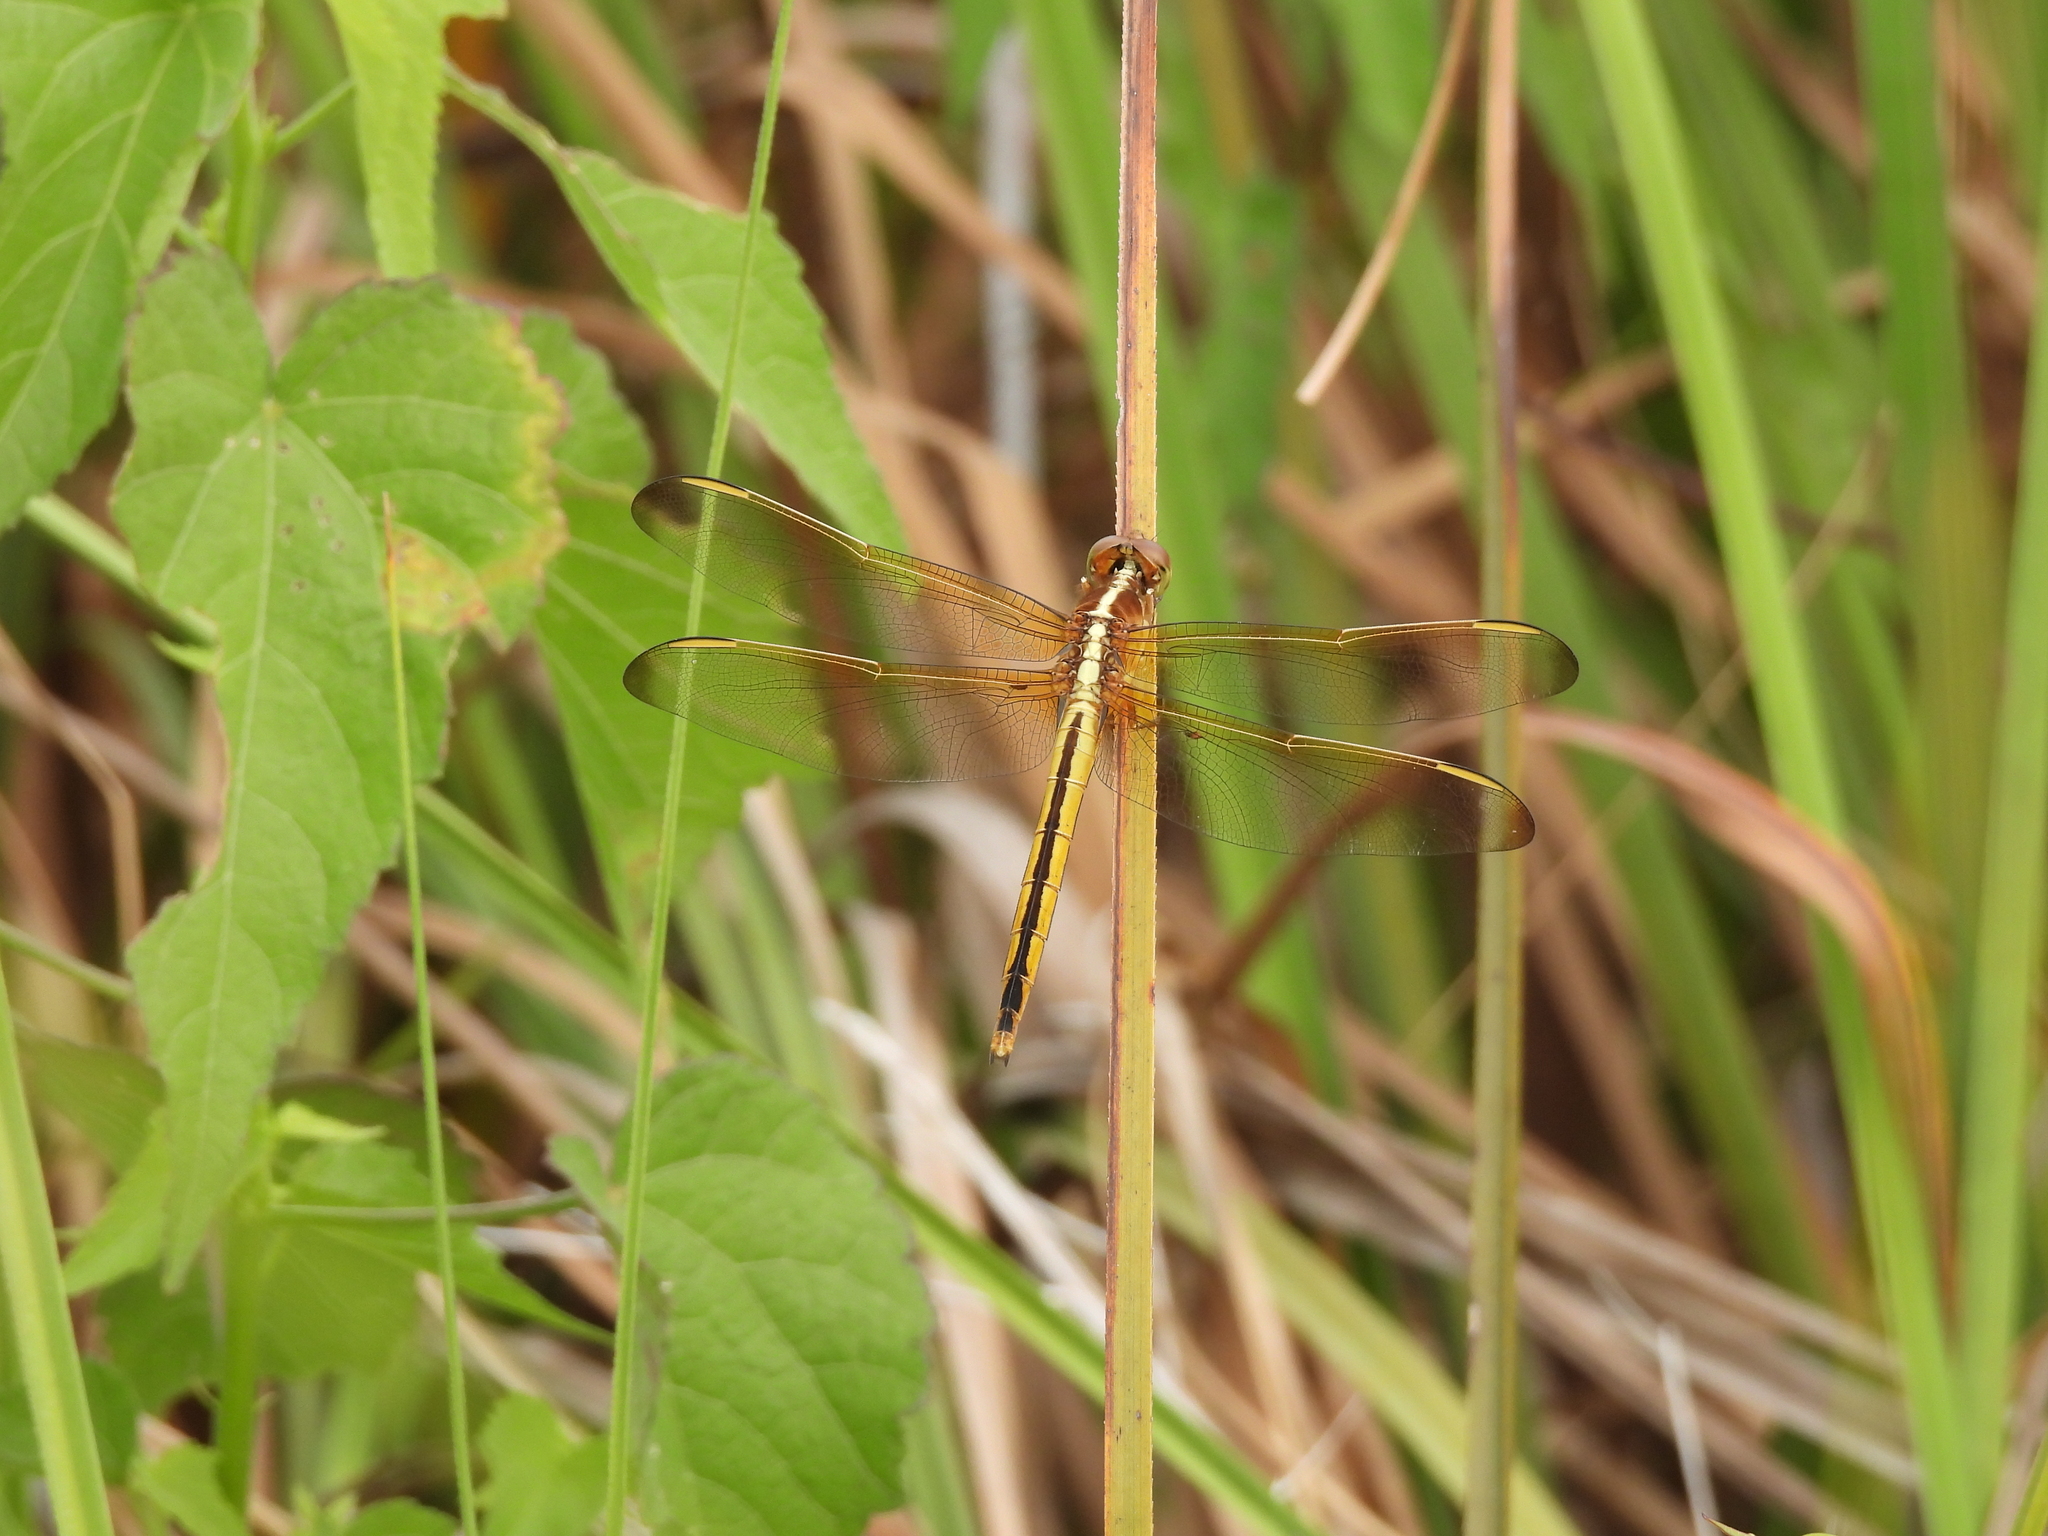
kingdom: Animalia
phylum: Arthropoda
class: Insecta
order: Odonata
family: Libellulidae
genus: Libellula
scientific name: Libellula needhami
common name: Needham's skimmer
